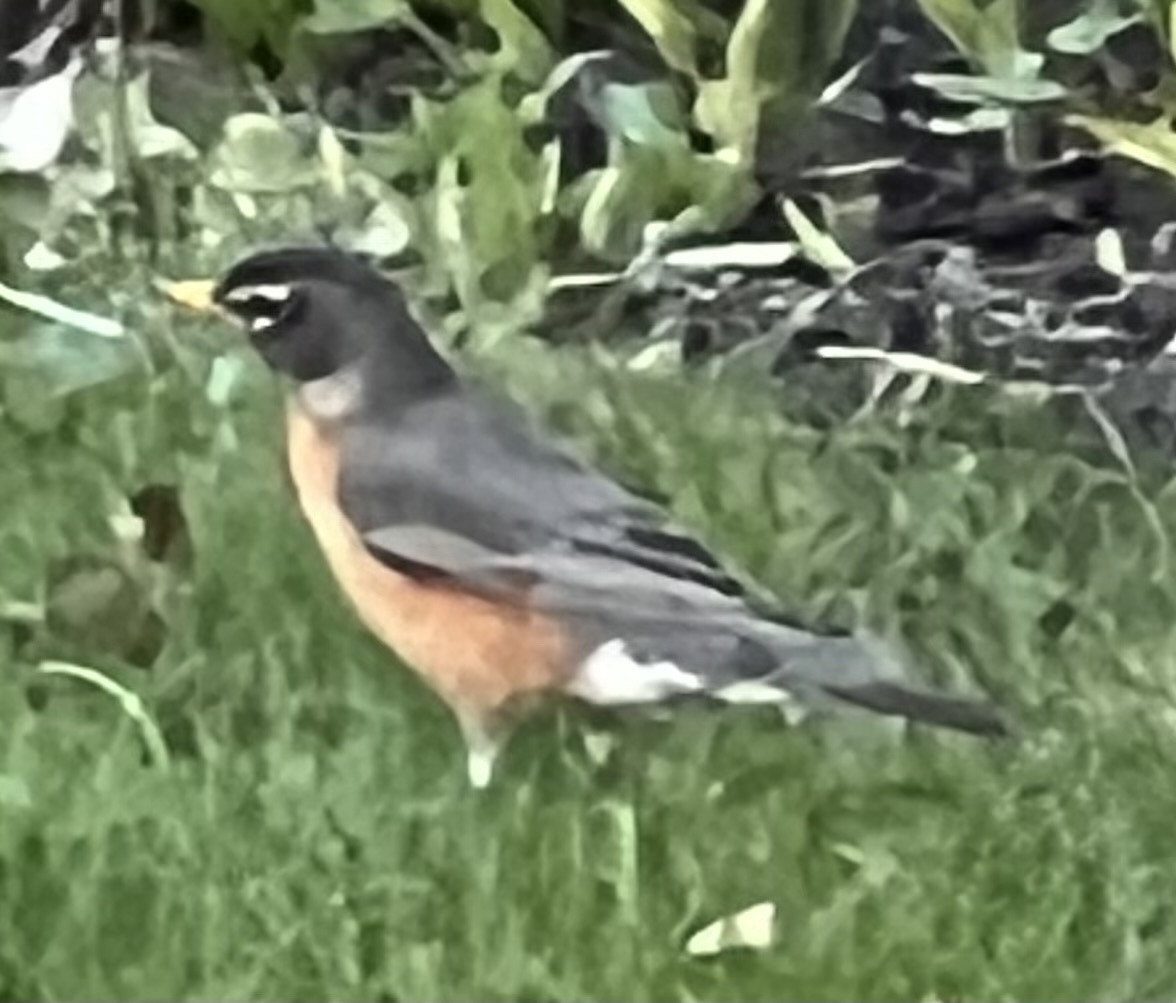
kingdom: Animalia
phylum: Chordata
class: Aves
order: Passeriformes
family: Turdidae
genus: Turdus
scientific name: Turdus migratorius
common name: American robin
